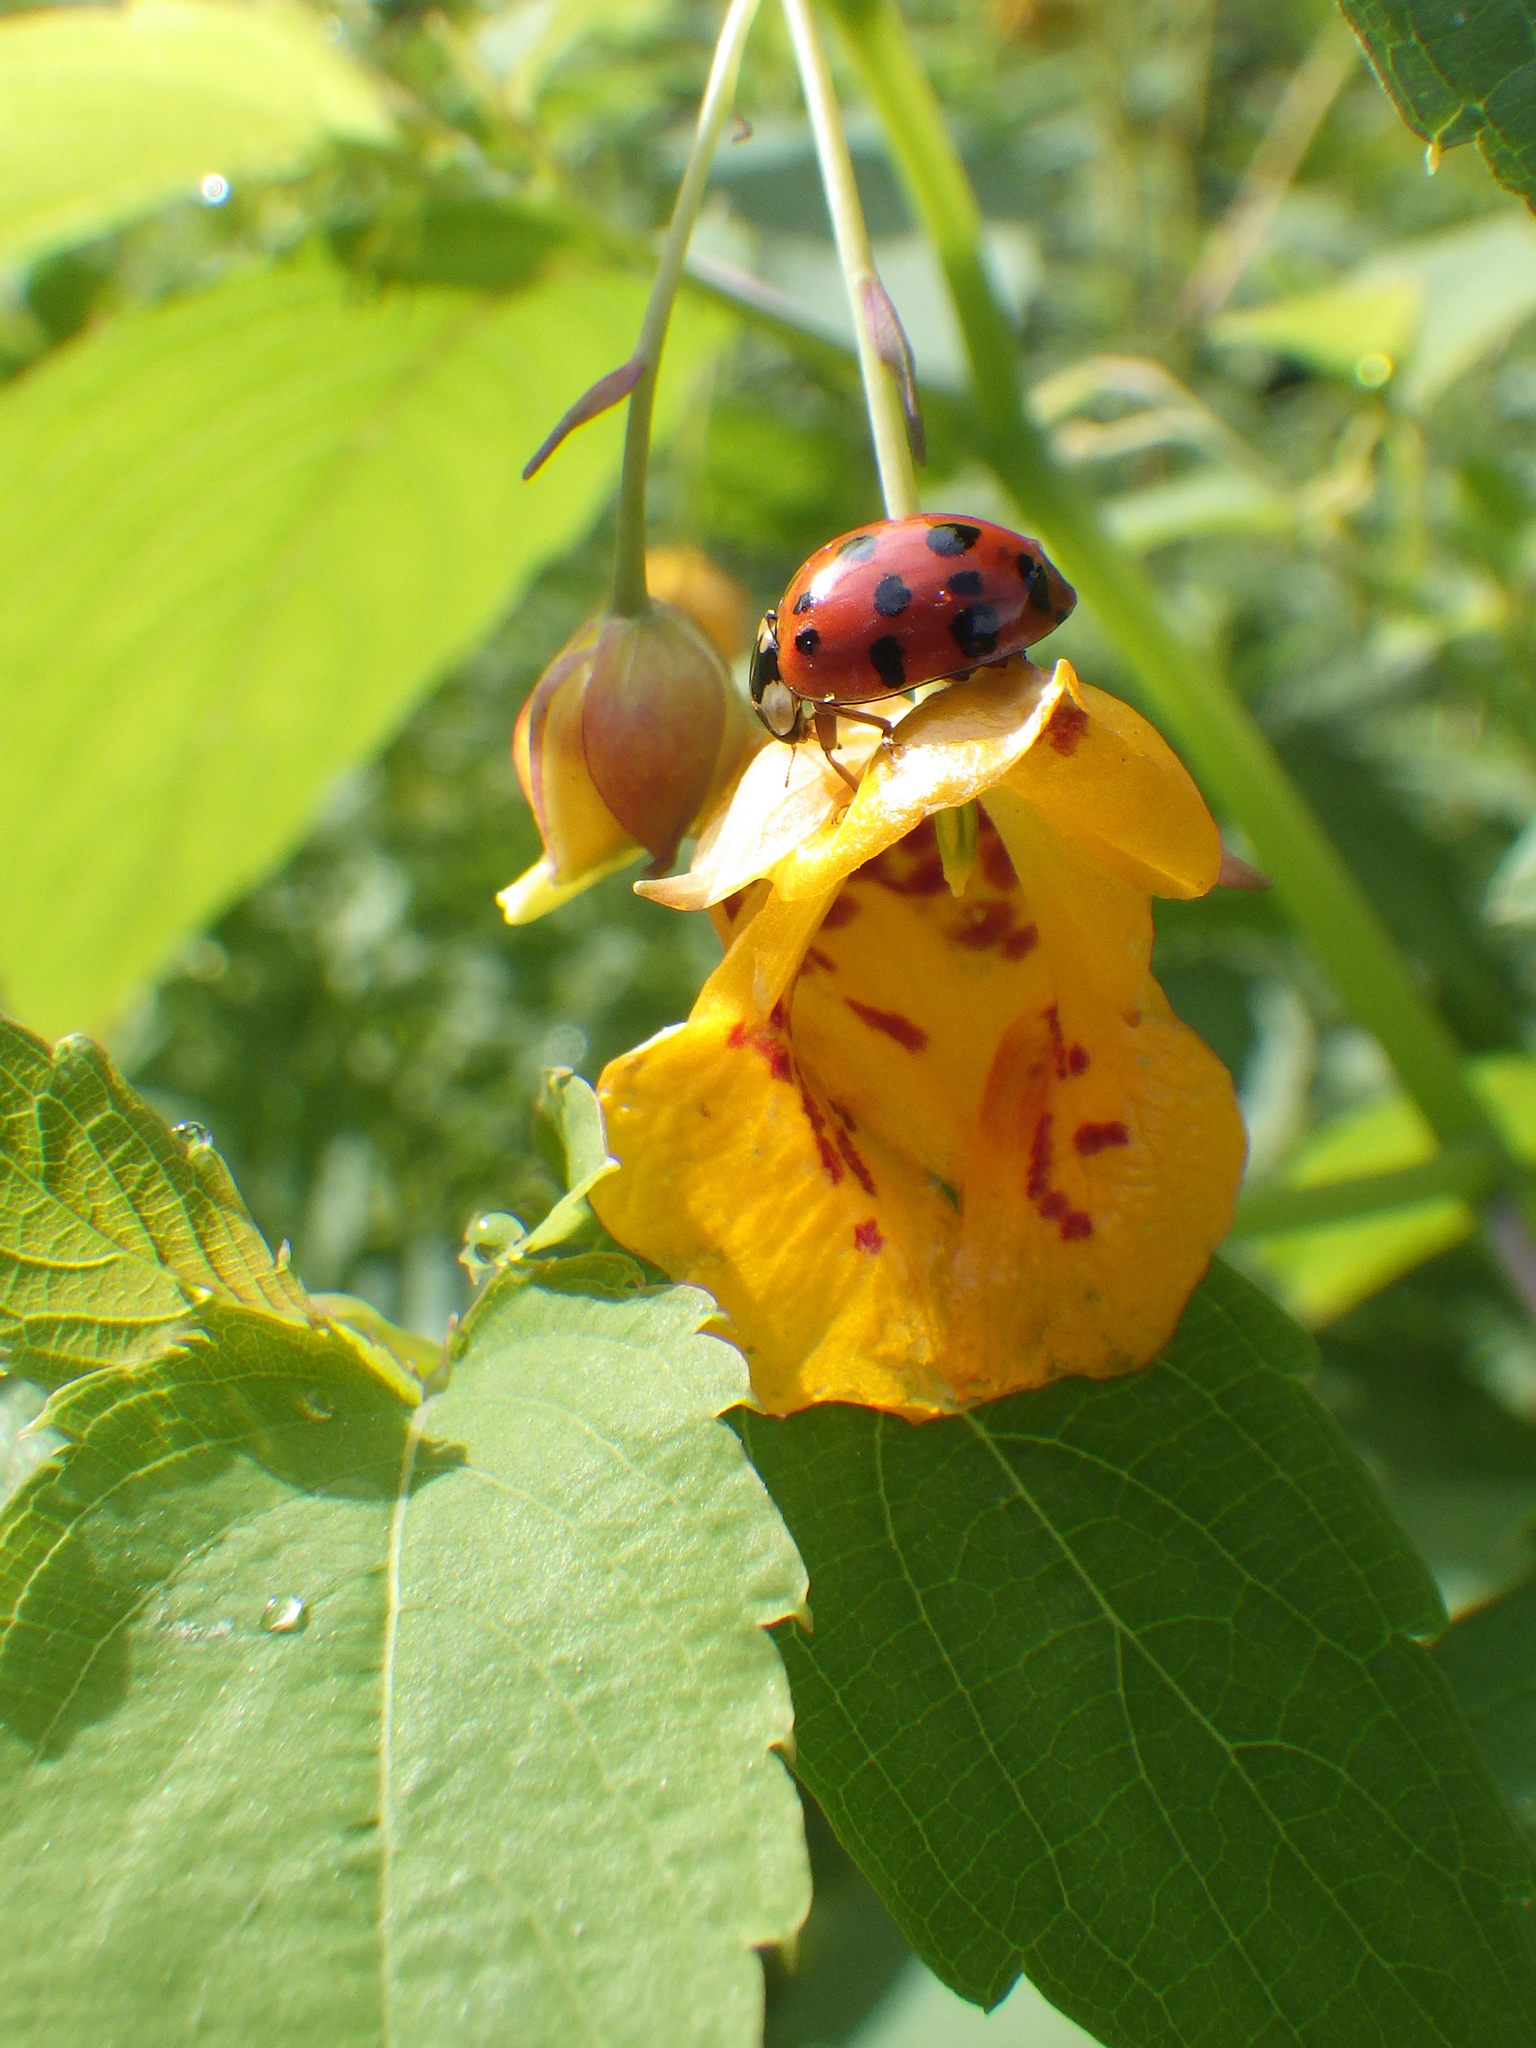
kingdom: Animalia
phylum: Arthropoda
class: Insecta
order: Coleoptera
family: Coccinellidae
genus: Harmonia
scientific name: Harmonia axyridis
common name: Harlequin ladybird
